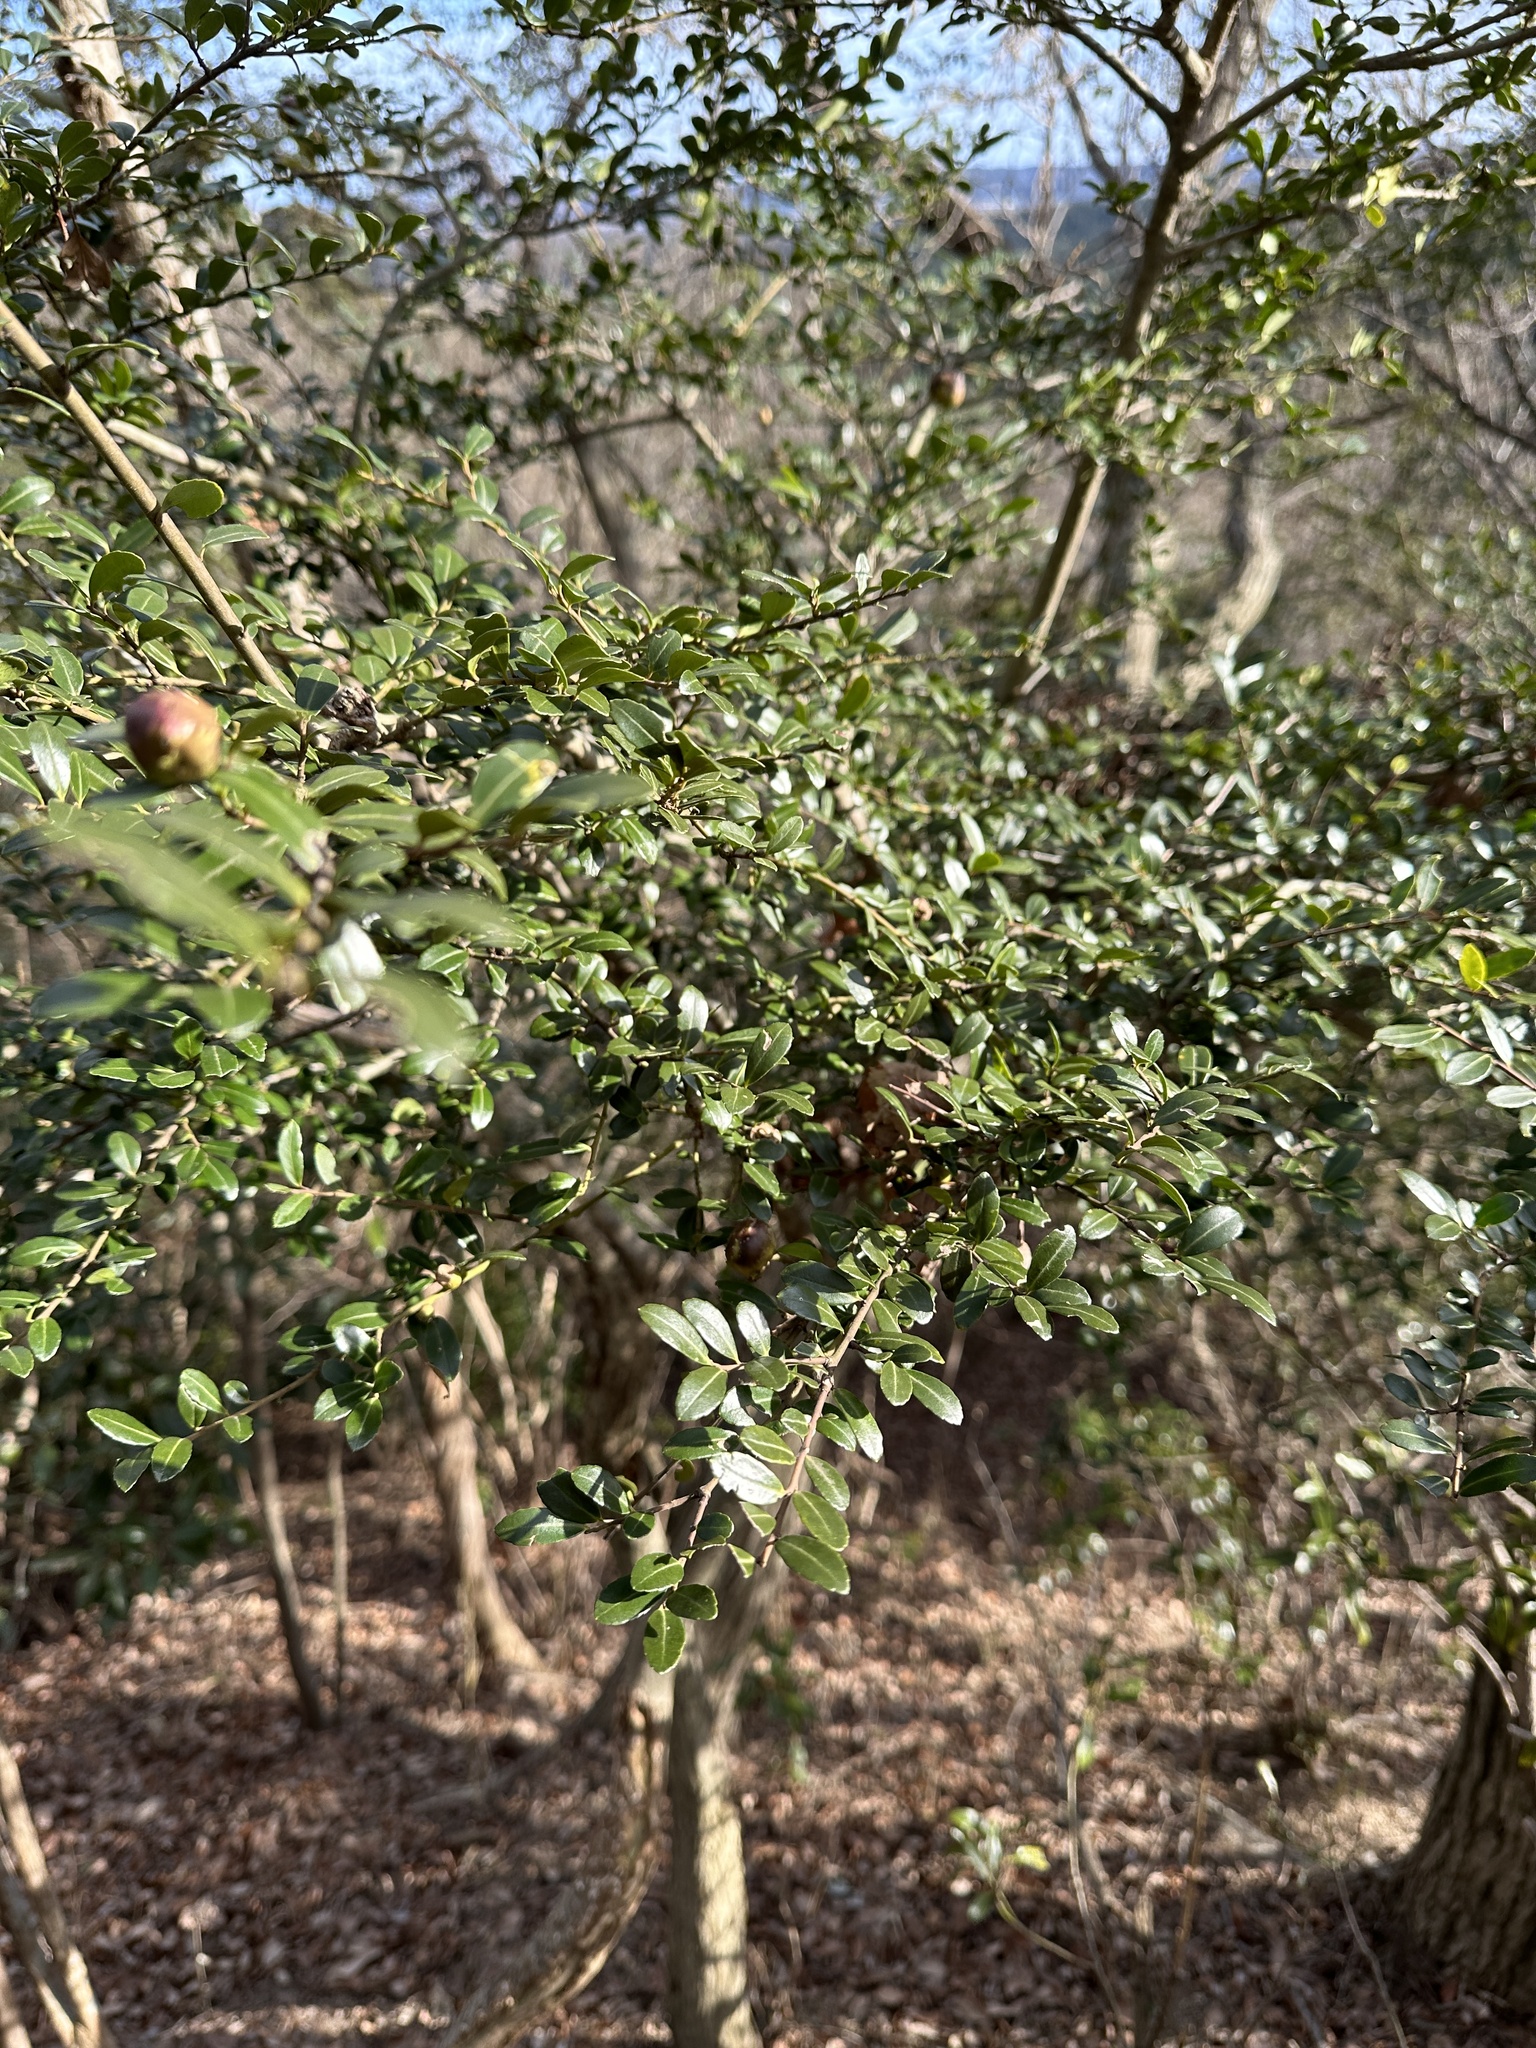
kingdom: Plantae
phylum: Tracheophyta
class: Magnoliopsida
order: Aquifoliales
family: Aquifoliaceae
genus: Ilex
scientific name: Ilex crenata
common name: Japanese holly
